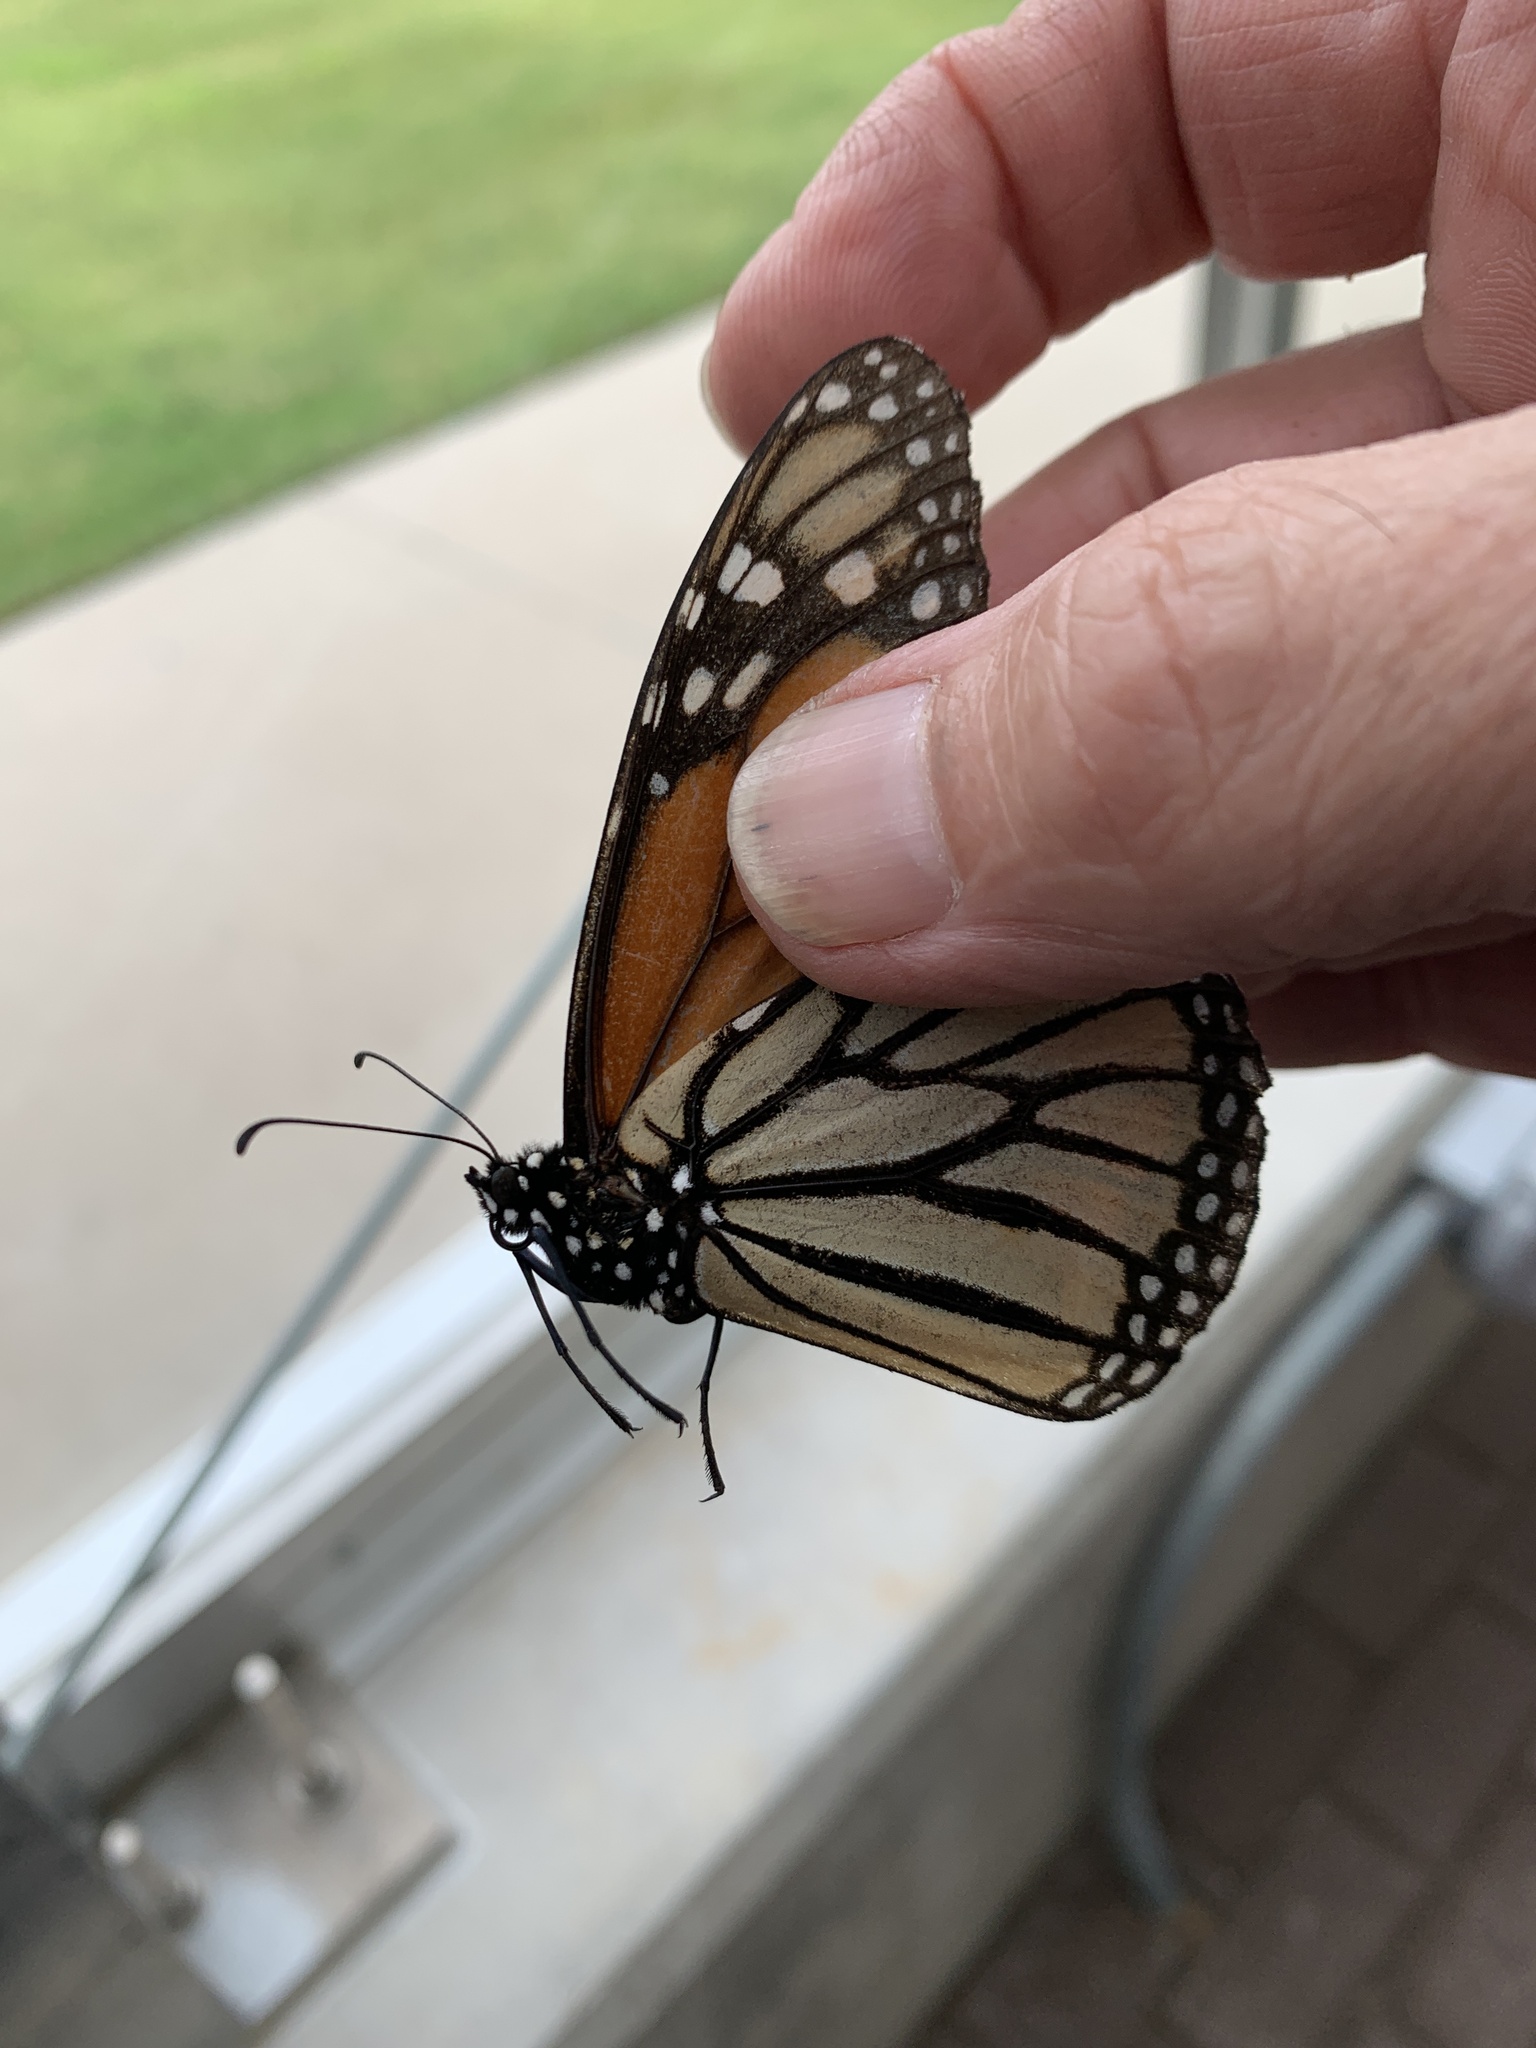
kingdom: Animalia
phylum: Arthropoda
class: Insecta
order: Lepidoptera
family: Nymphalidae
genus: Danaus
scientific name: Danaus plexippus
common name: Monarch
